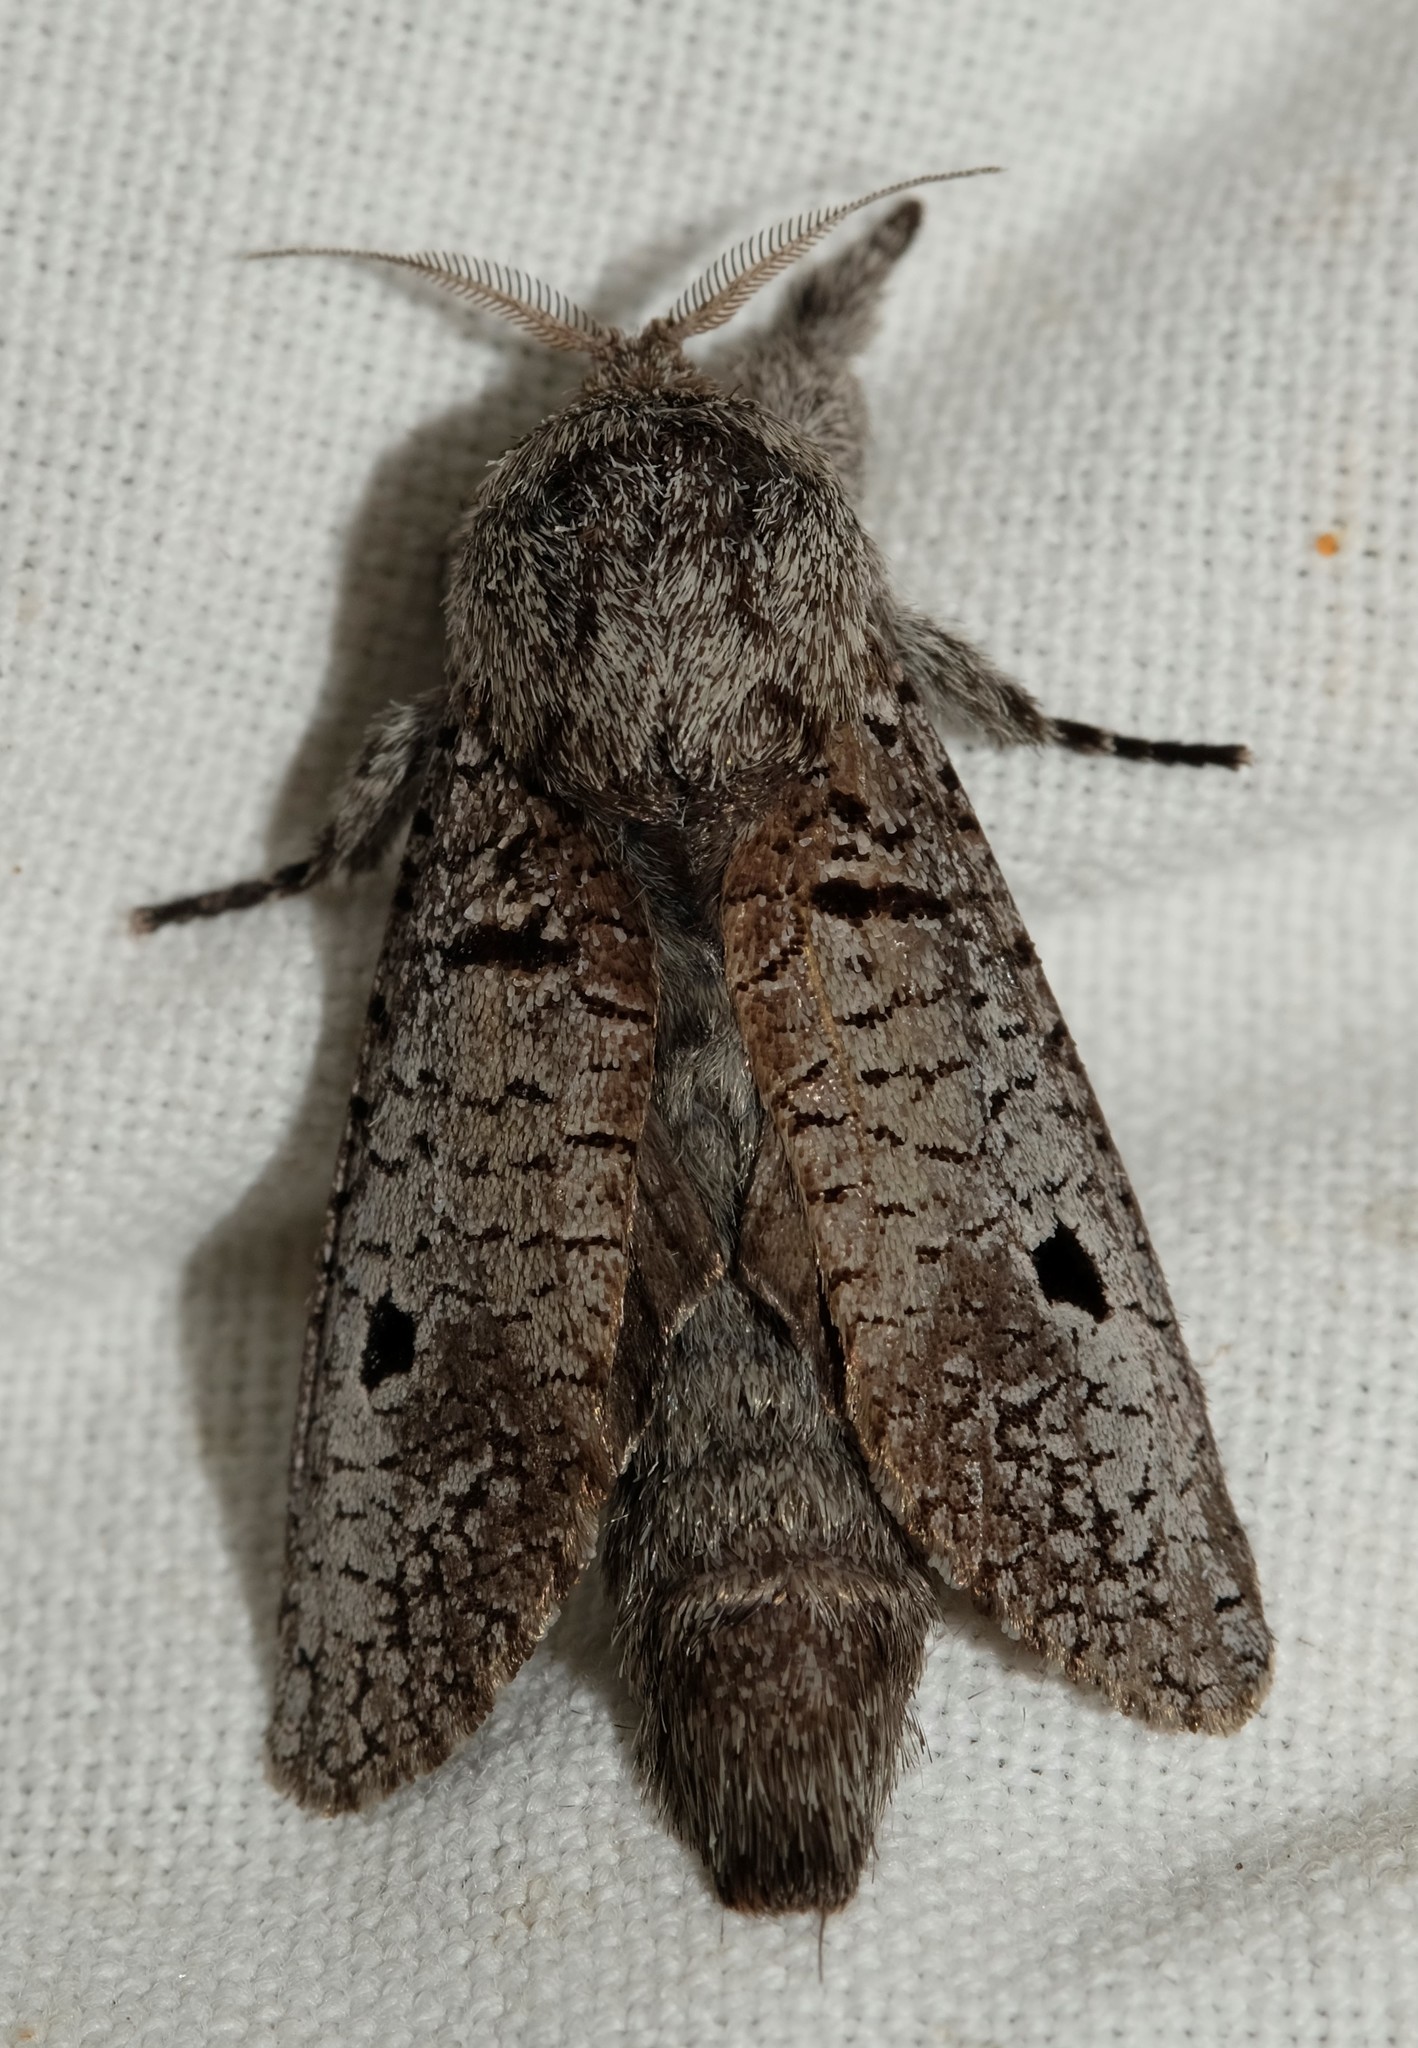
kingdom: Animalia
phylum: Arthropoda
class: Insecta
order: Lepidoptera
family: Cossidae
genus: Sympycnodes
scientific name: Sympycnodes
